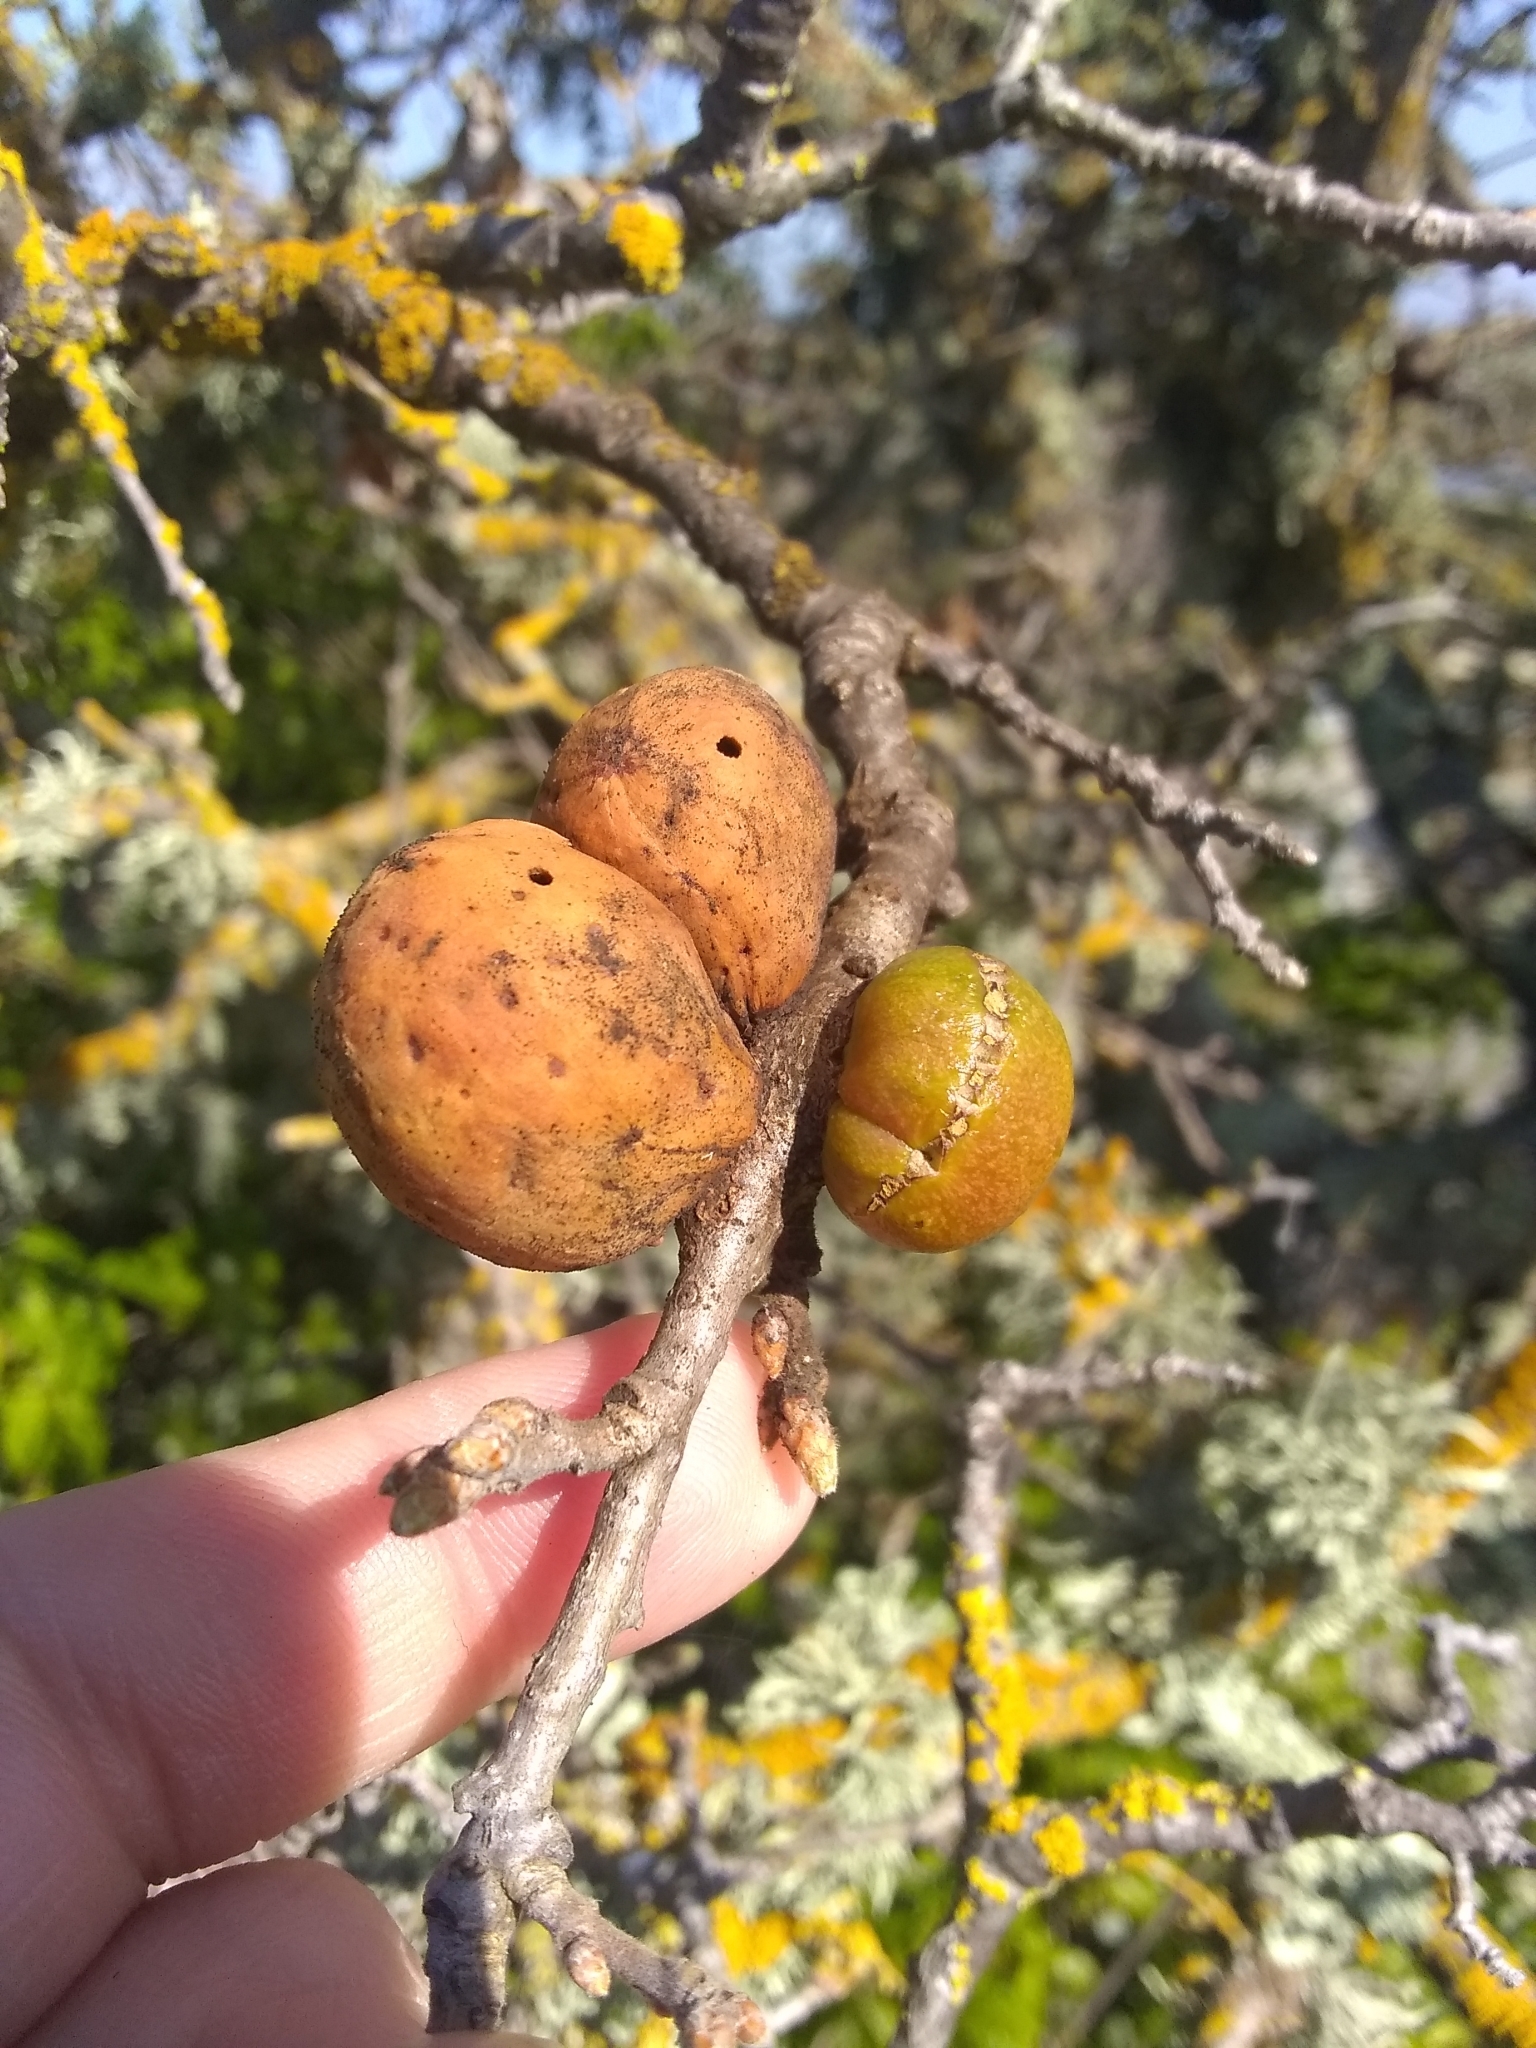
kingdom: Animalia
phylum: Arthropoda
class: Insecta
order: Hymenoptera
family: Cynipidae
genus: Andricus
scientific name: Andricus quercuscalifornicus
